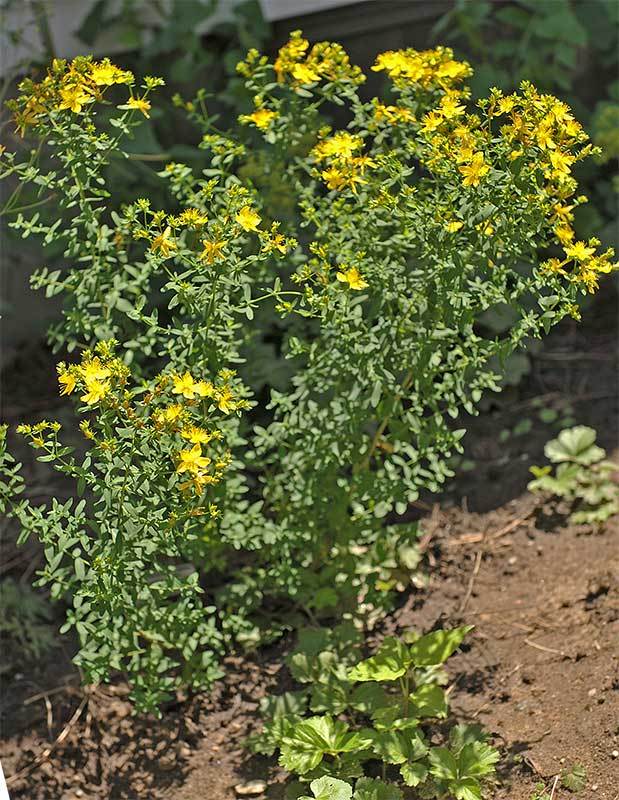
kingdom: Plantae
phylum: Tracheophyta
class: Magnoliopsida
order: Malpighiales
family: Hypericaceae
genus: Hypericum
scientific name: Hypericum perforatum
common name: Common st. johnswort
